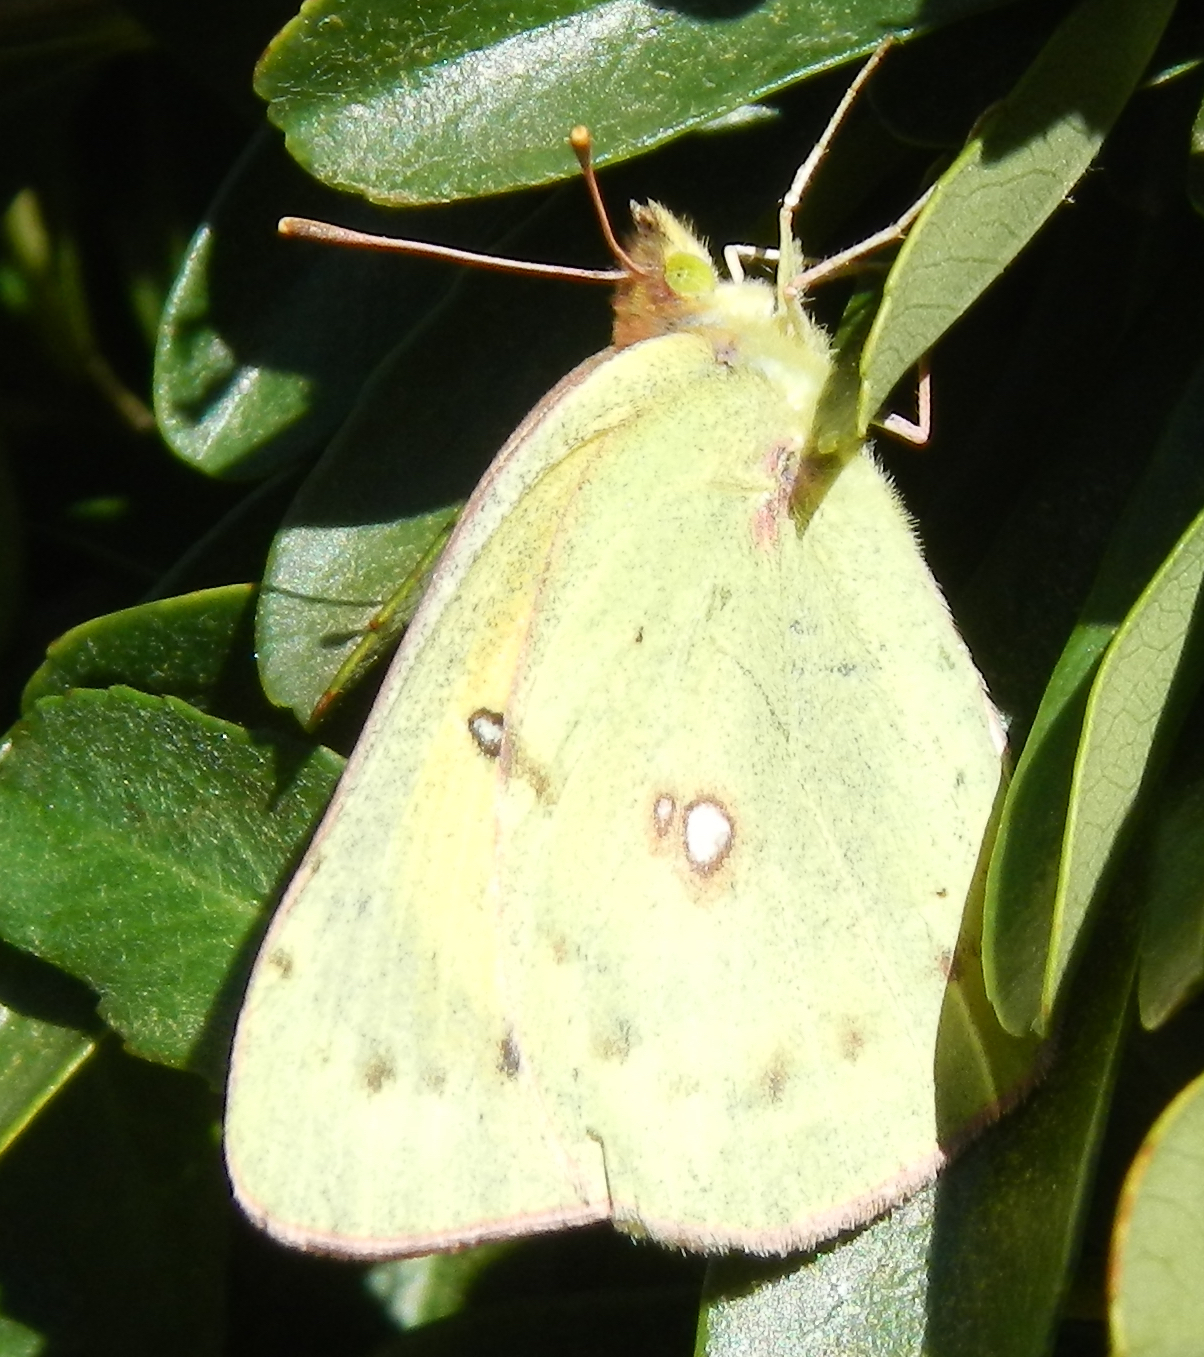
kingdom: Animalia
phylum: Arthropoda
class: Insecta
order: Lepidoptera
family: Pieridae
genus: Colias
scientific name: Colias eurytheme
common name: Alfalfa butterfly
